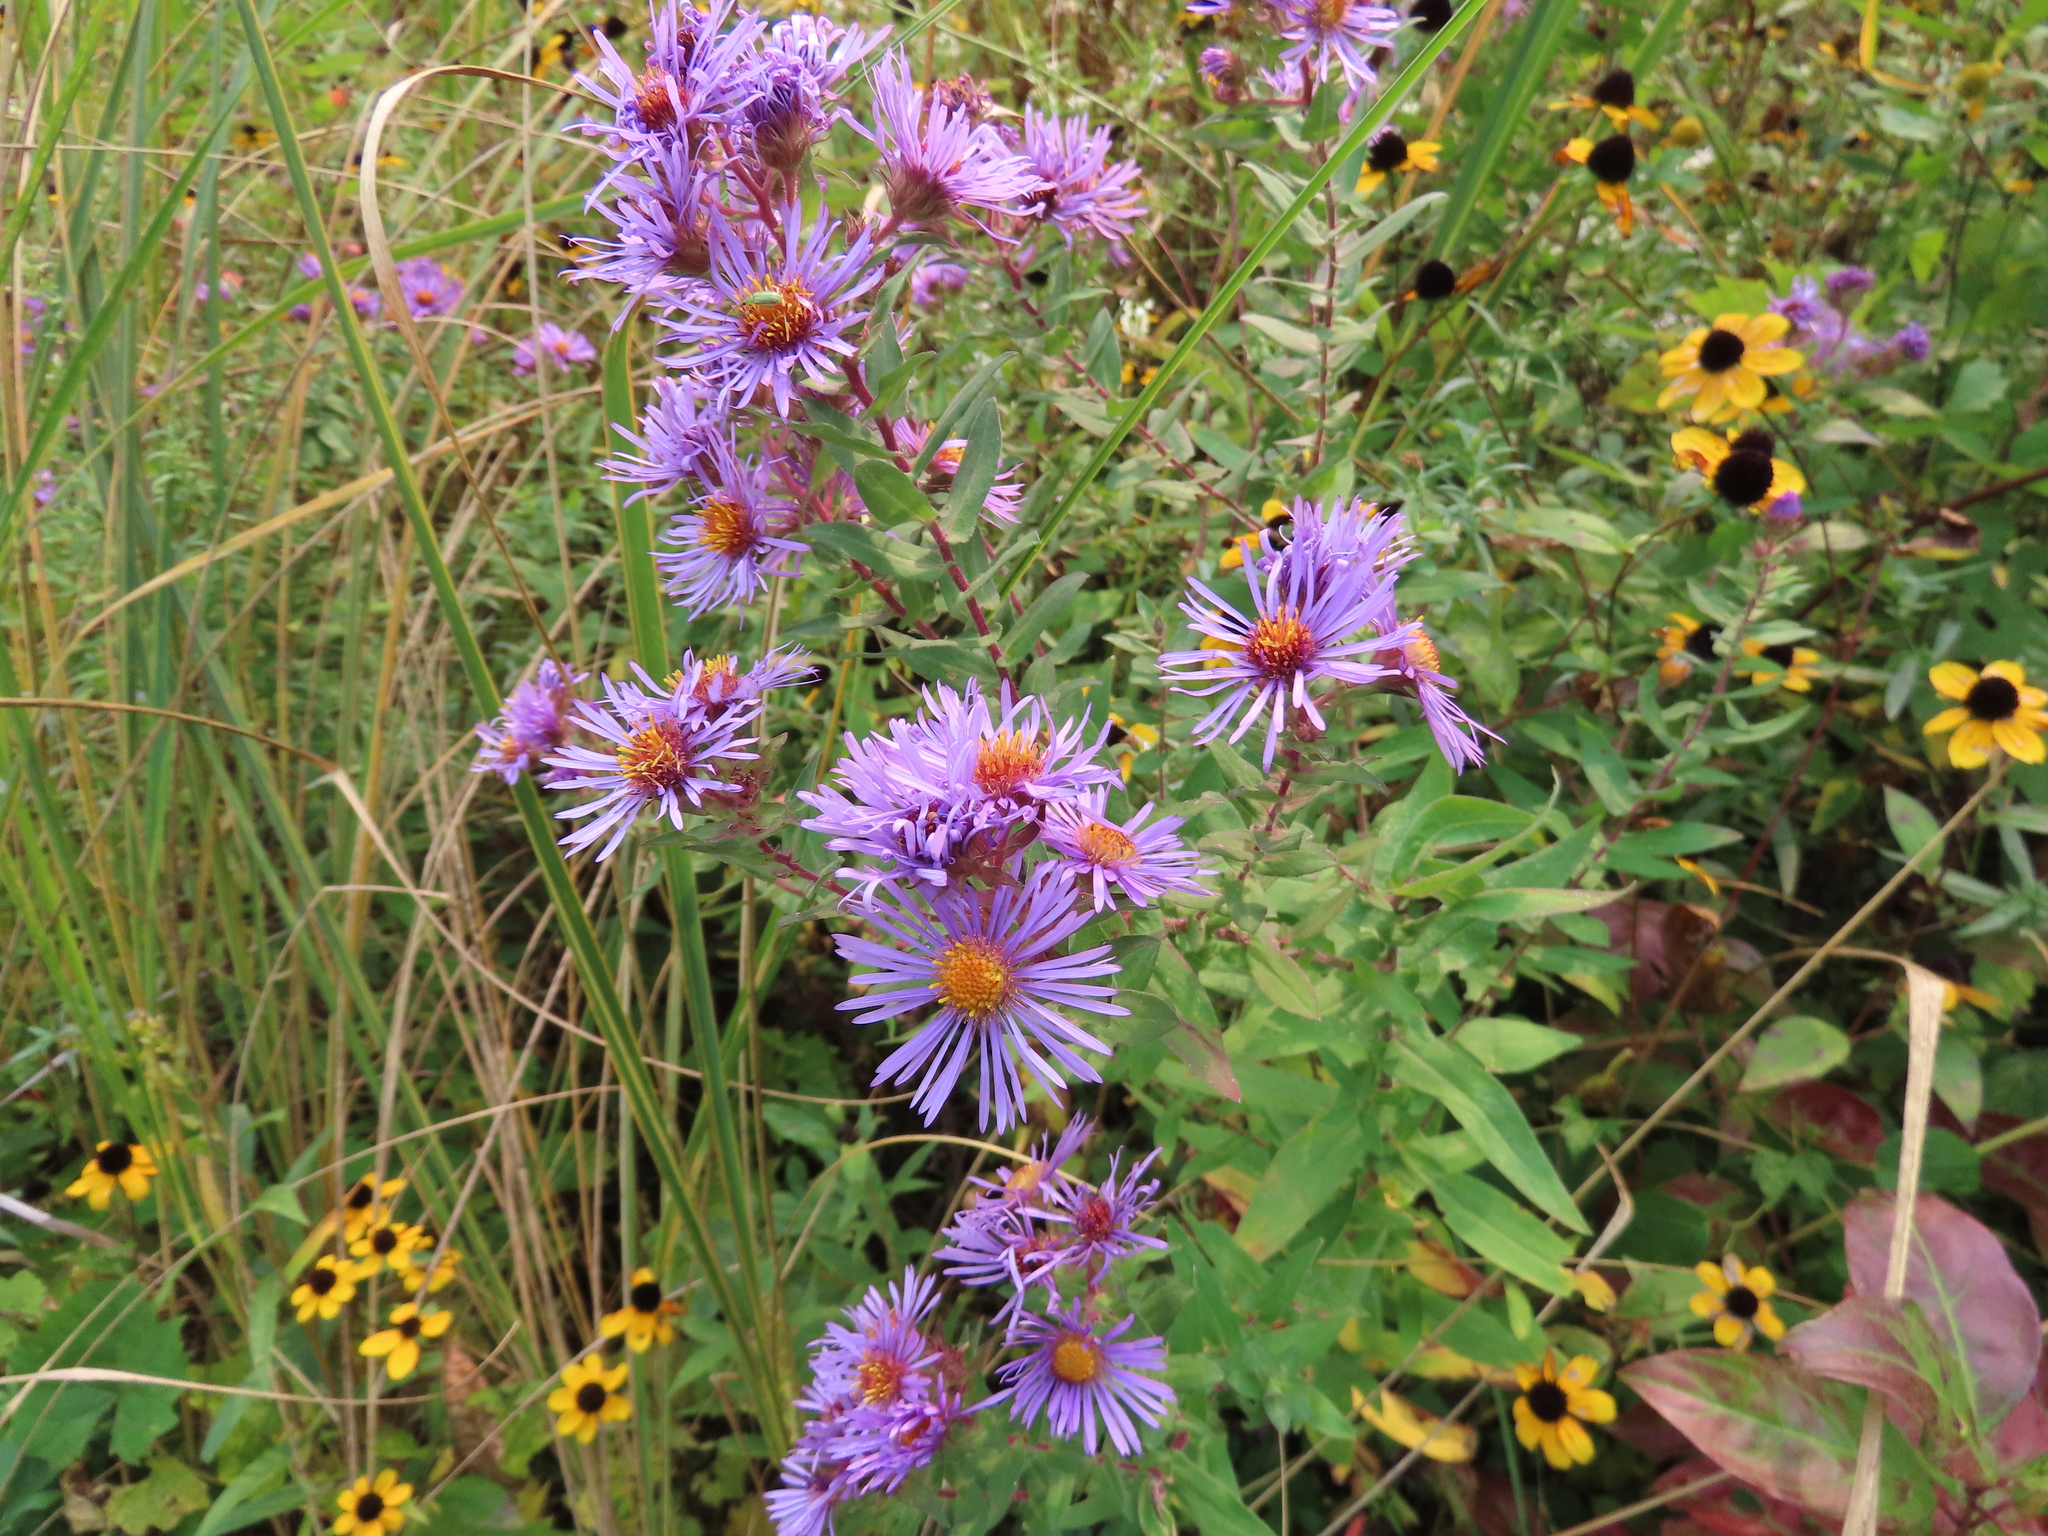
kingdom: Plantae
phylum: Tracheophyta
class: Magnoliopsida
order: Asterales
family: Asteraceae
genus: Symphyotrichum
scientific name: Symphyotrichum novae-angliae
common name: Michaelmas daisy
